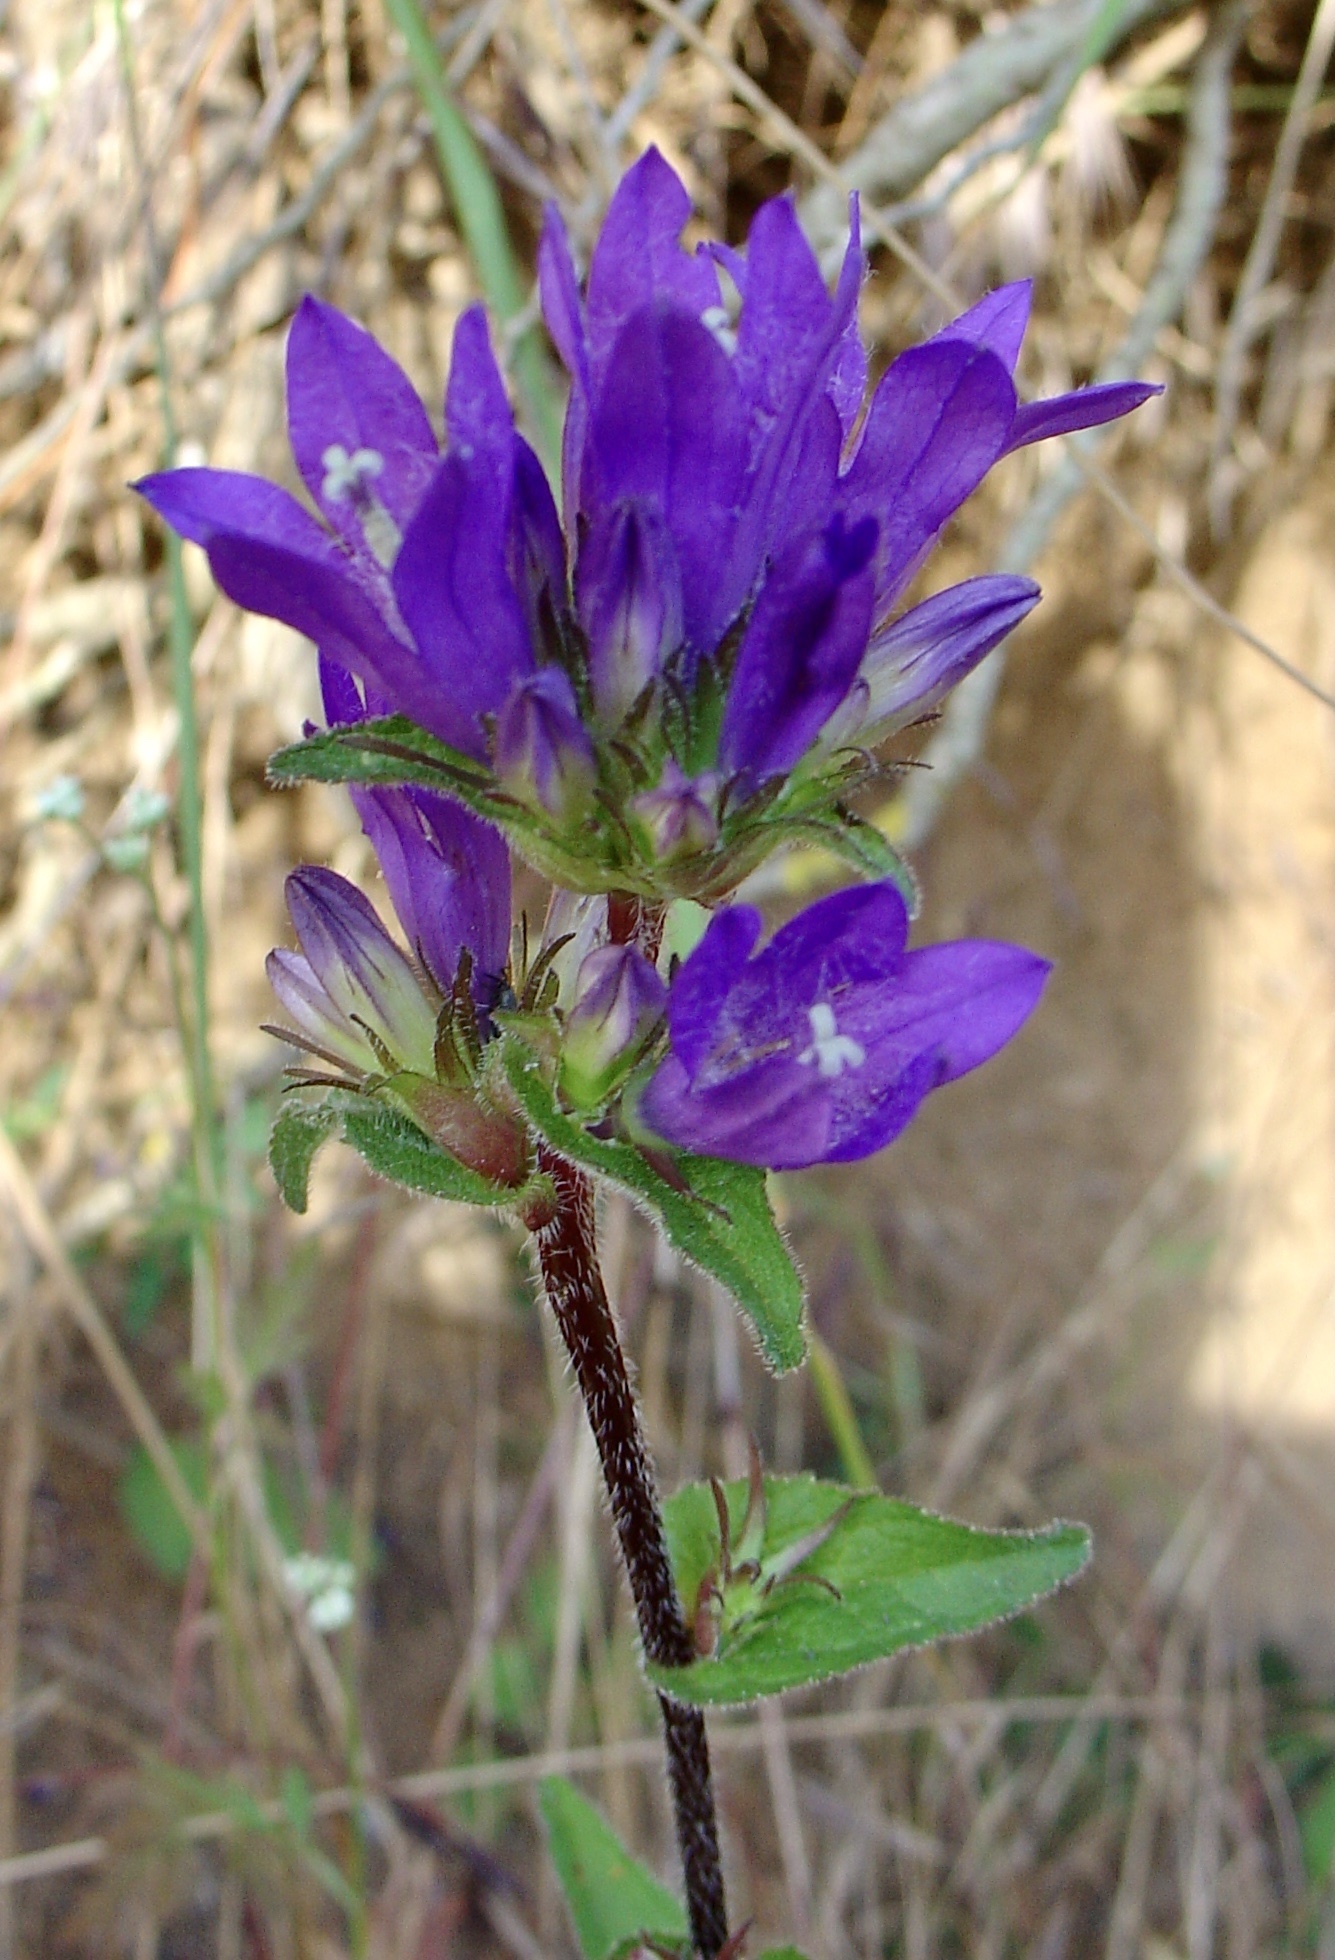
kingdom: Plantae
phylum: Tracheophyta
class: Magnoliopsida
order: Asterales
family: Campanulaceae
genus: Campanula
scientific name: Campanula glomerata
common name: Clustered bellflower
